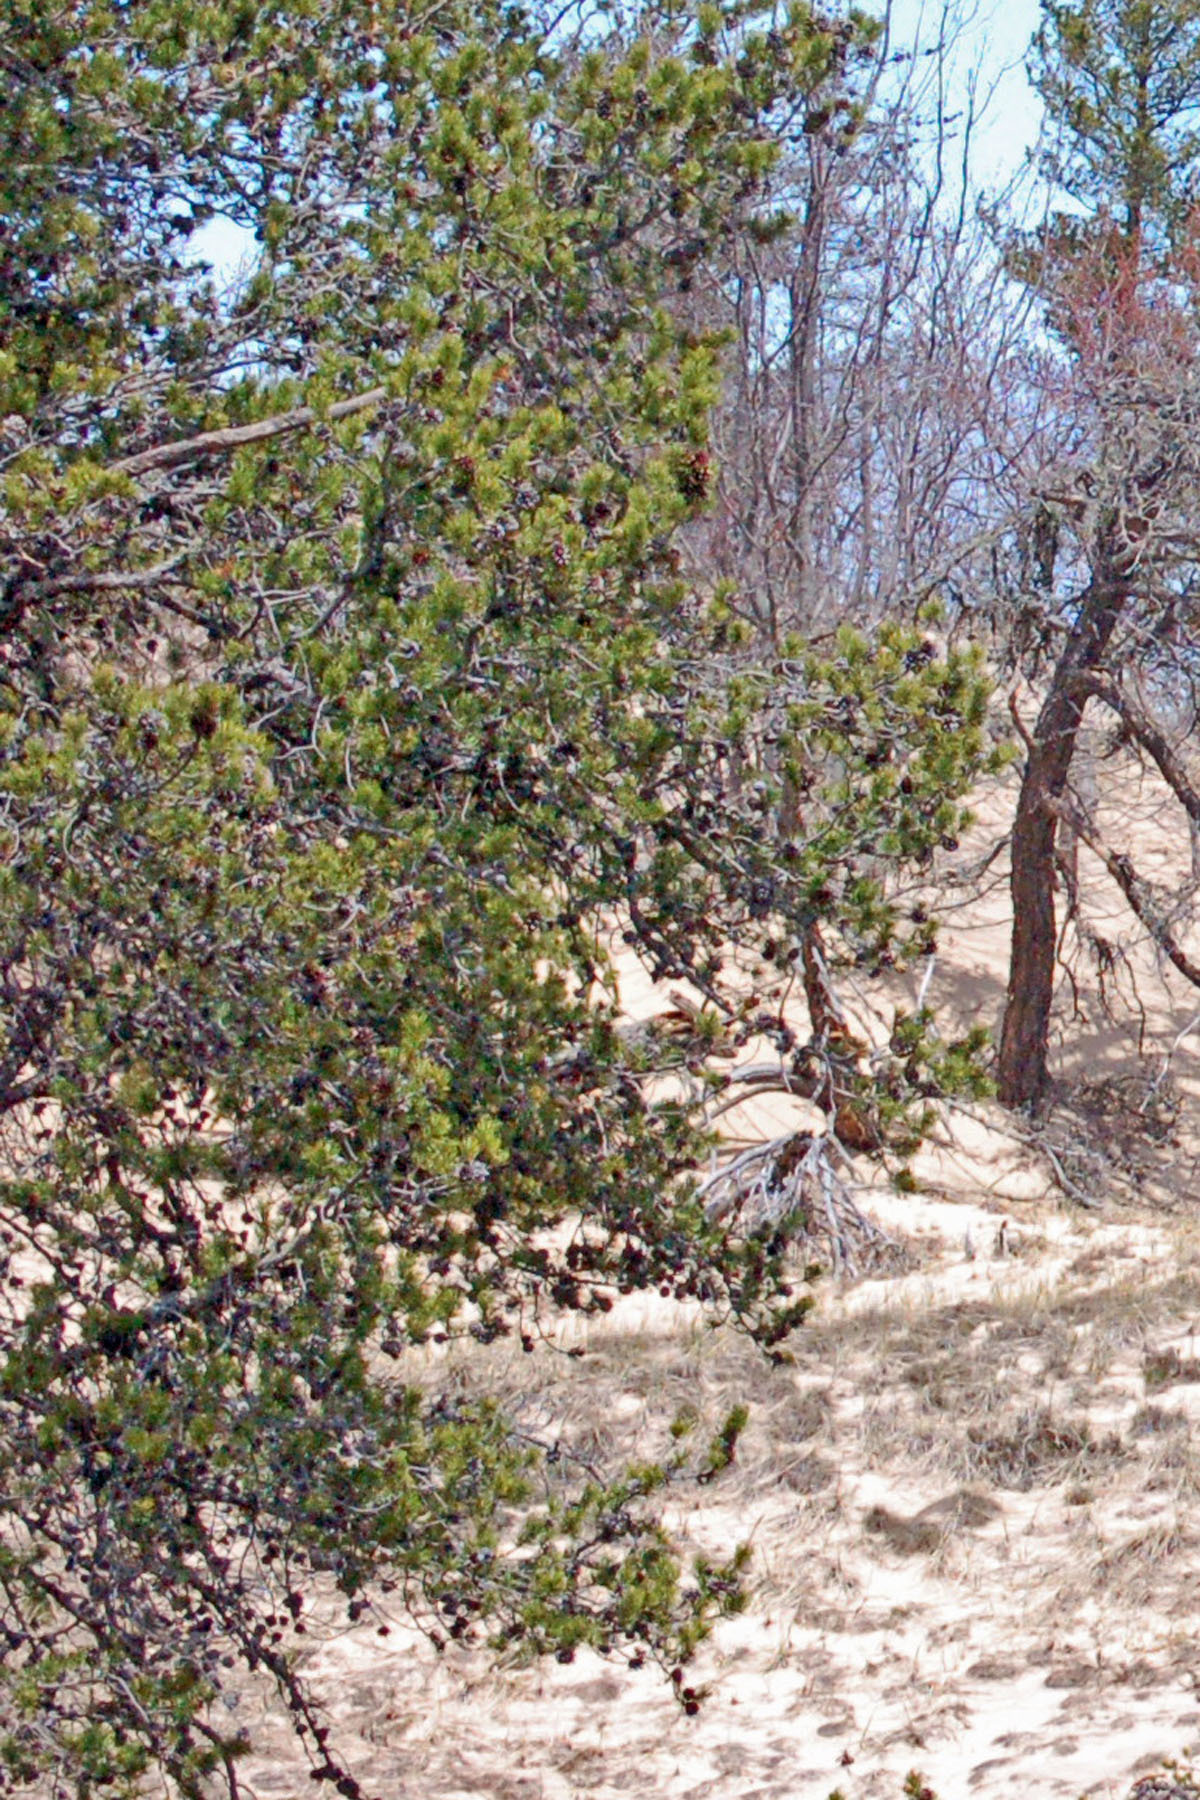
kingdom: Plantae
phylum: Tracheophyta
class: Pinopsida
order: Pinales
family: Pinaceae
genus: Pinus
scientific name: Pinus banksiana
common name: Jack pine
